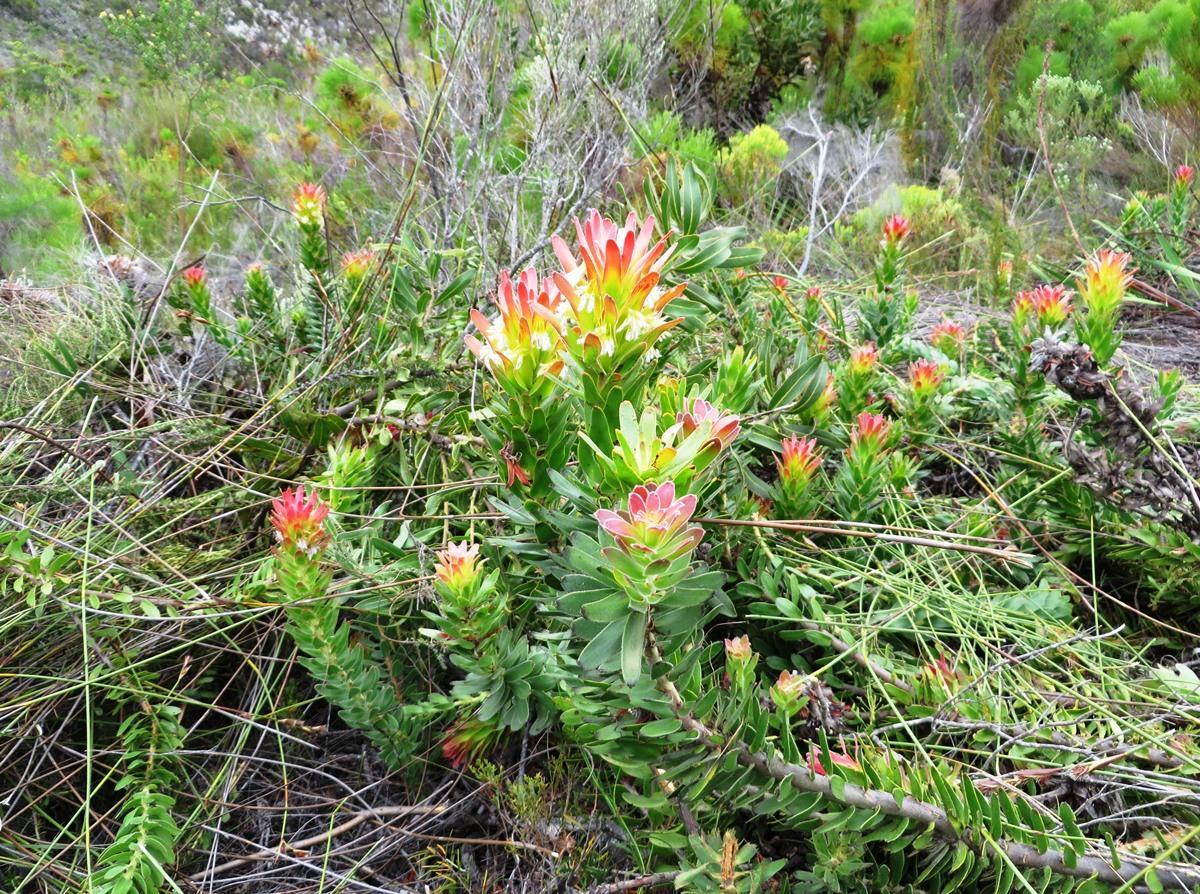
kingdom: Plantae
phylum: Tracheophyta
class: Magnoliopsida
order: Proteales
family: Proteaceae
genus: Mimetes
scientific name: Mimetes cucullatus
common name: Common pagoda
